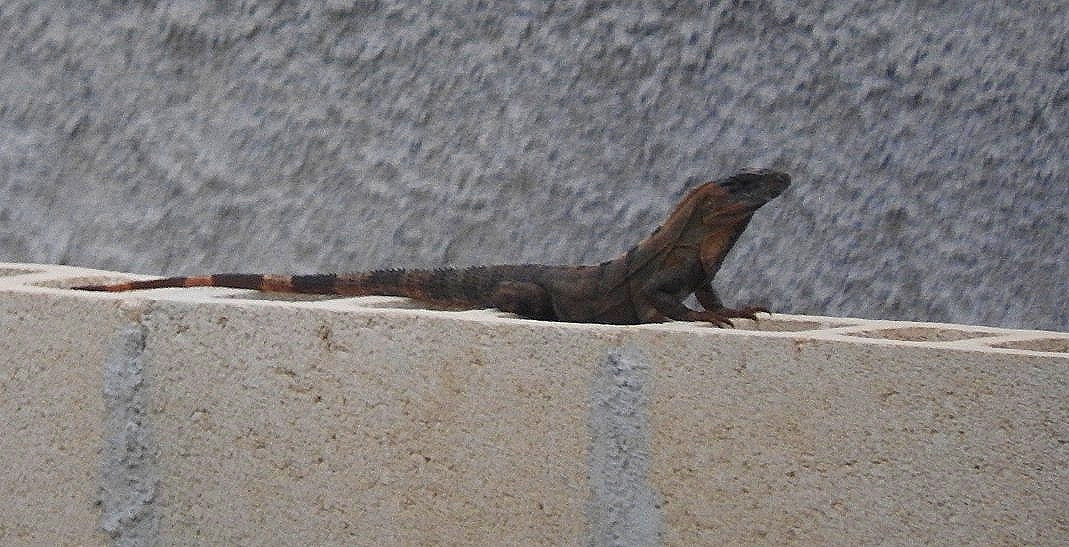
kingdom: Animalia
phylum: Chordata
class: Squamata
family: Iguanidae
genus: Ctenosaura
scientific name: Ctenosaura similis
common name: Black spiny-tailed iguana
